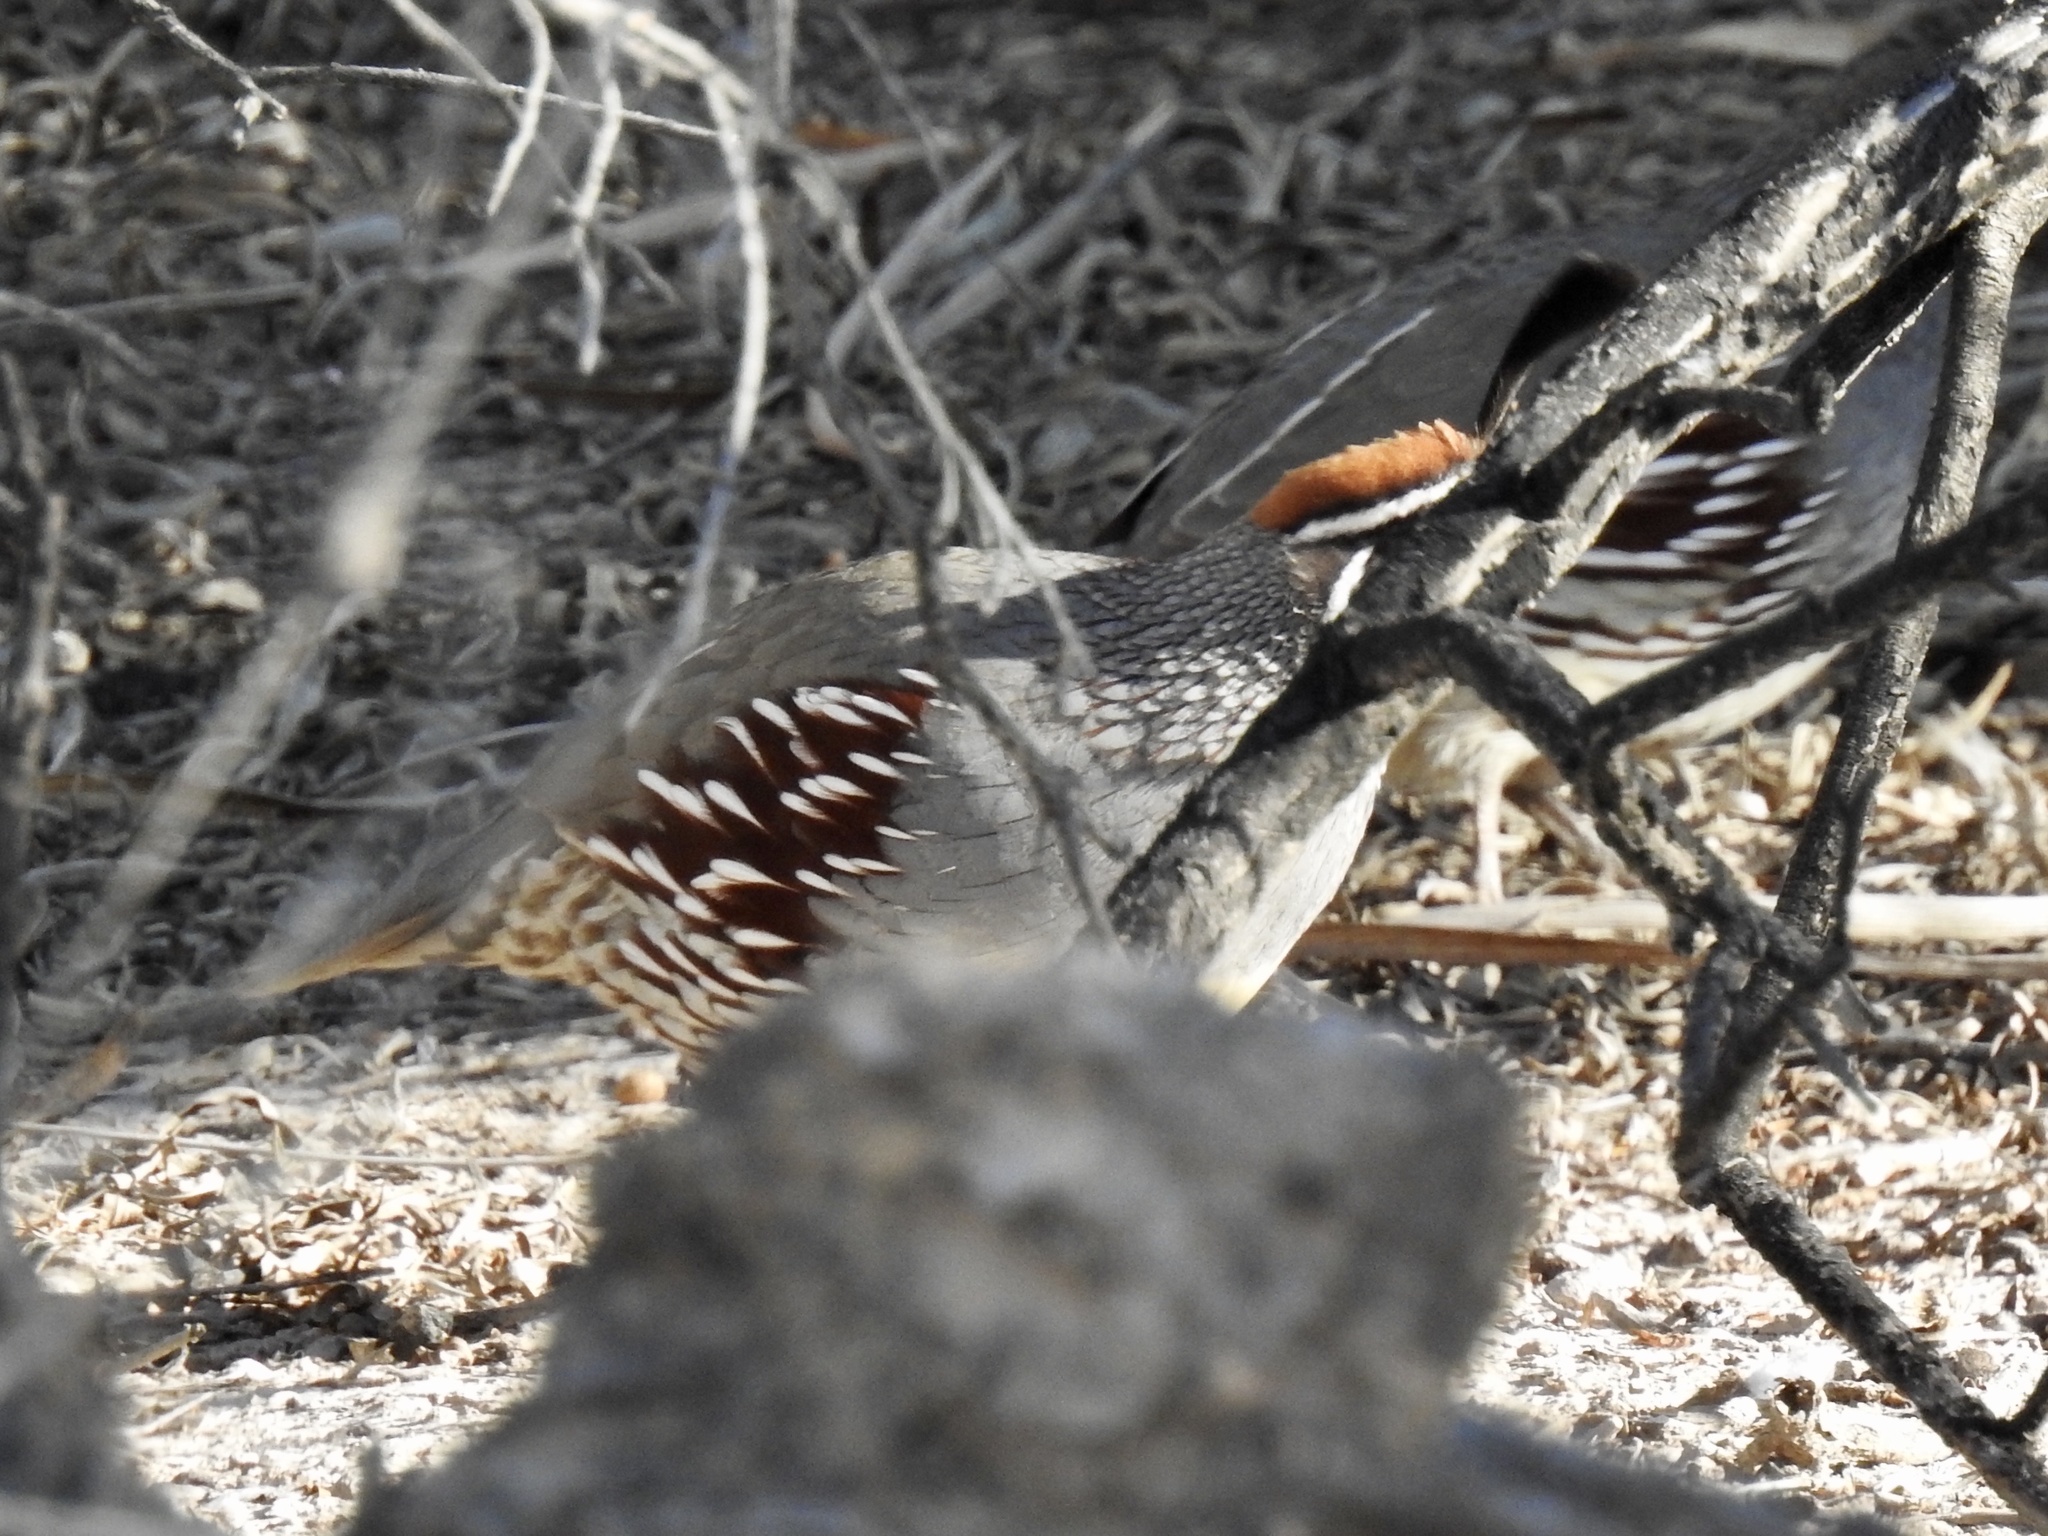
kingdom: Animalia
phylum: Chordata
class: Aves
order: Galliformes
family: Odontophoridae
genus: Callipepla
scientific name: Callipepla gambelii
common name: Gambel's quail
